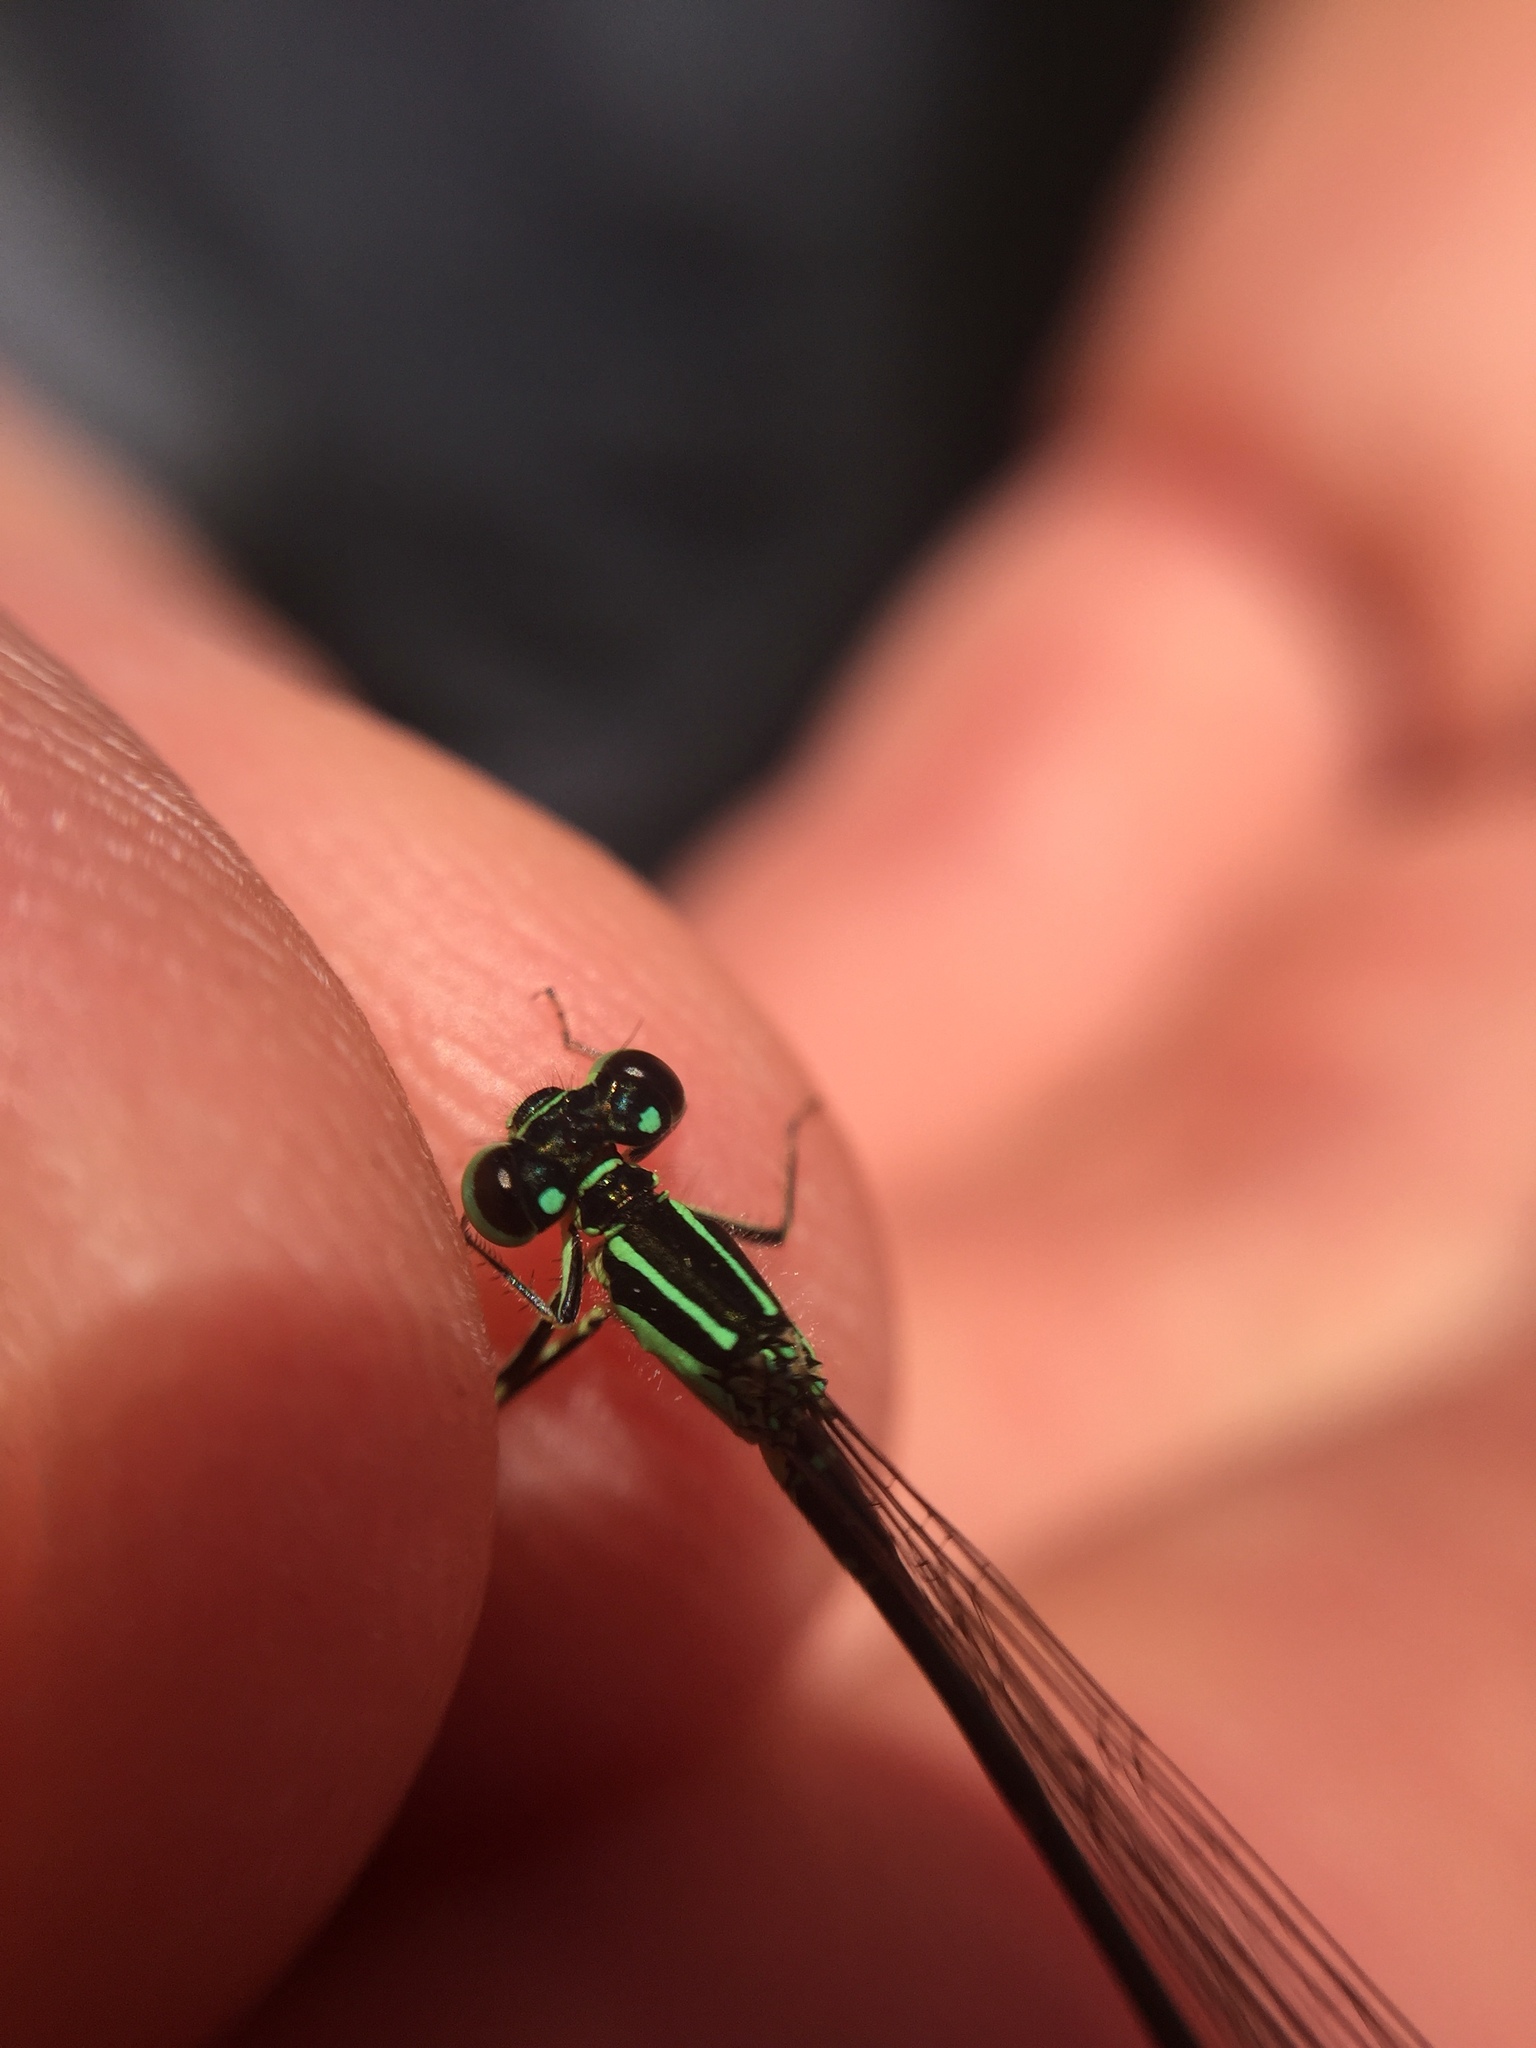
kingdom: Animalia
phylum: Arthropoda
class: Insecta
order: Odonata
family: Coenagrionidae
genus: Ischnura
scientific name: Ischnura verticalis
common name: Eastern forktail
